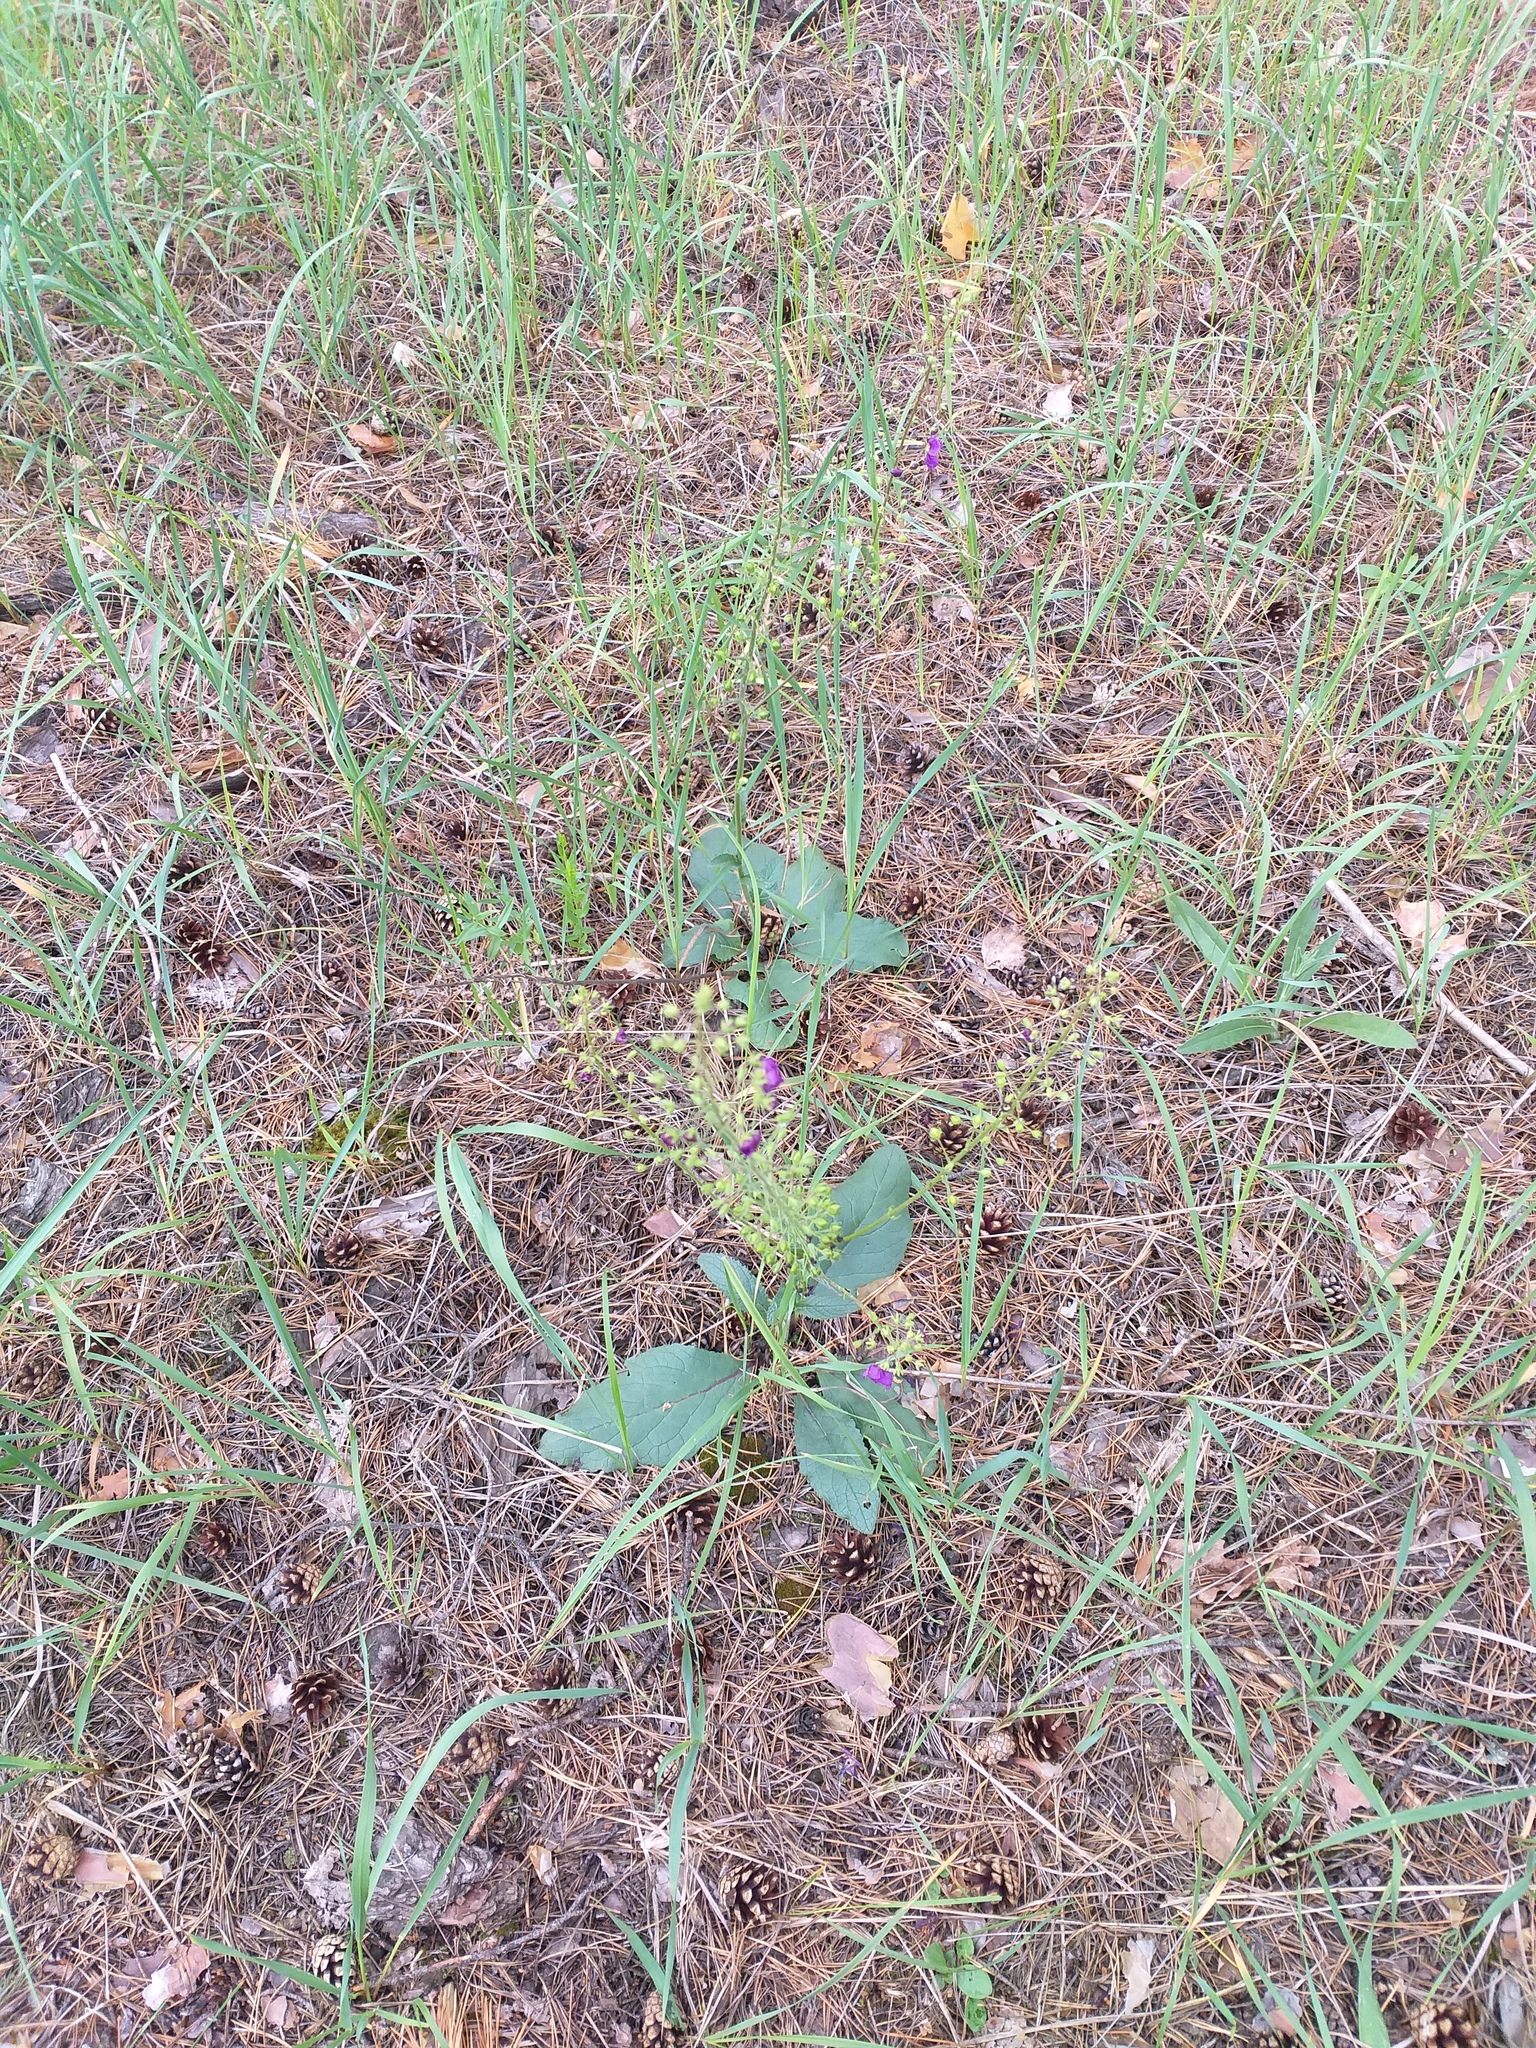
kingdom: Plantae
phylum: Tracheophyta
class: Magnoliopsida
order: Lamiales
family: Scrophulariaceae
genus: Verbascum
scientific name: Verbascum phoeniceum
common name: Purple mullein
